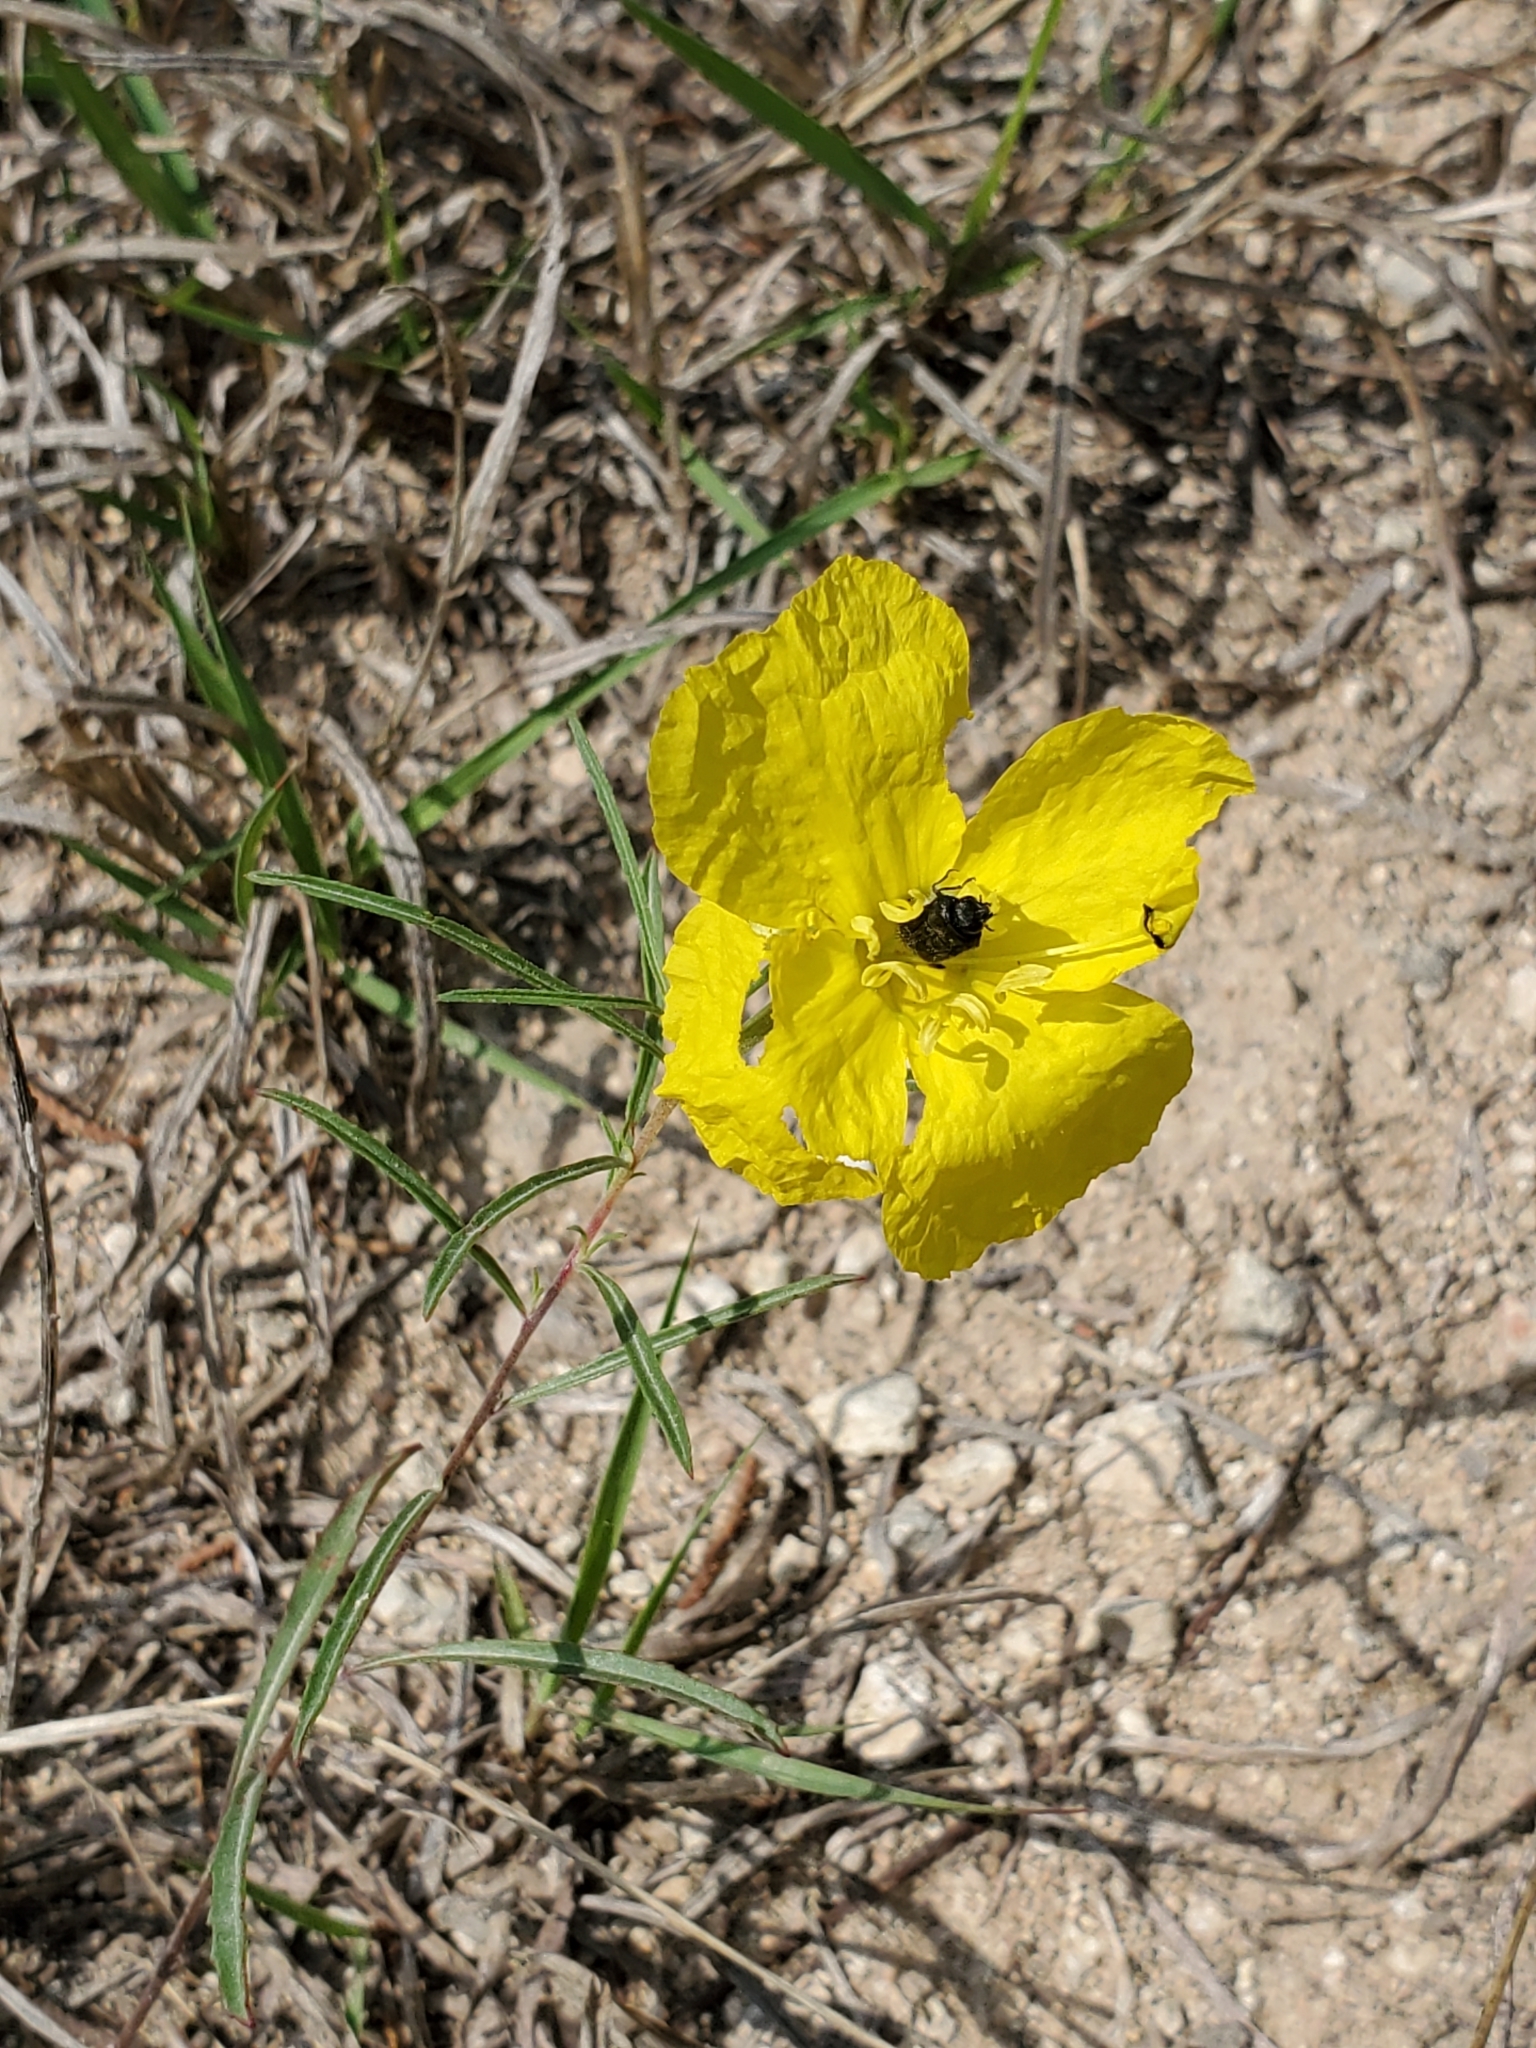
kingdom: Plantae
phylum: Tracheophyta
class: Magnoliopsida
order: Myrtales
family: Onagraceae
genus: Oenothera
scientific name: Oenothera
